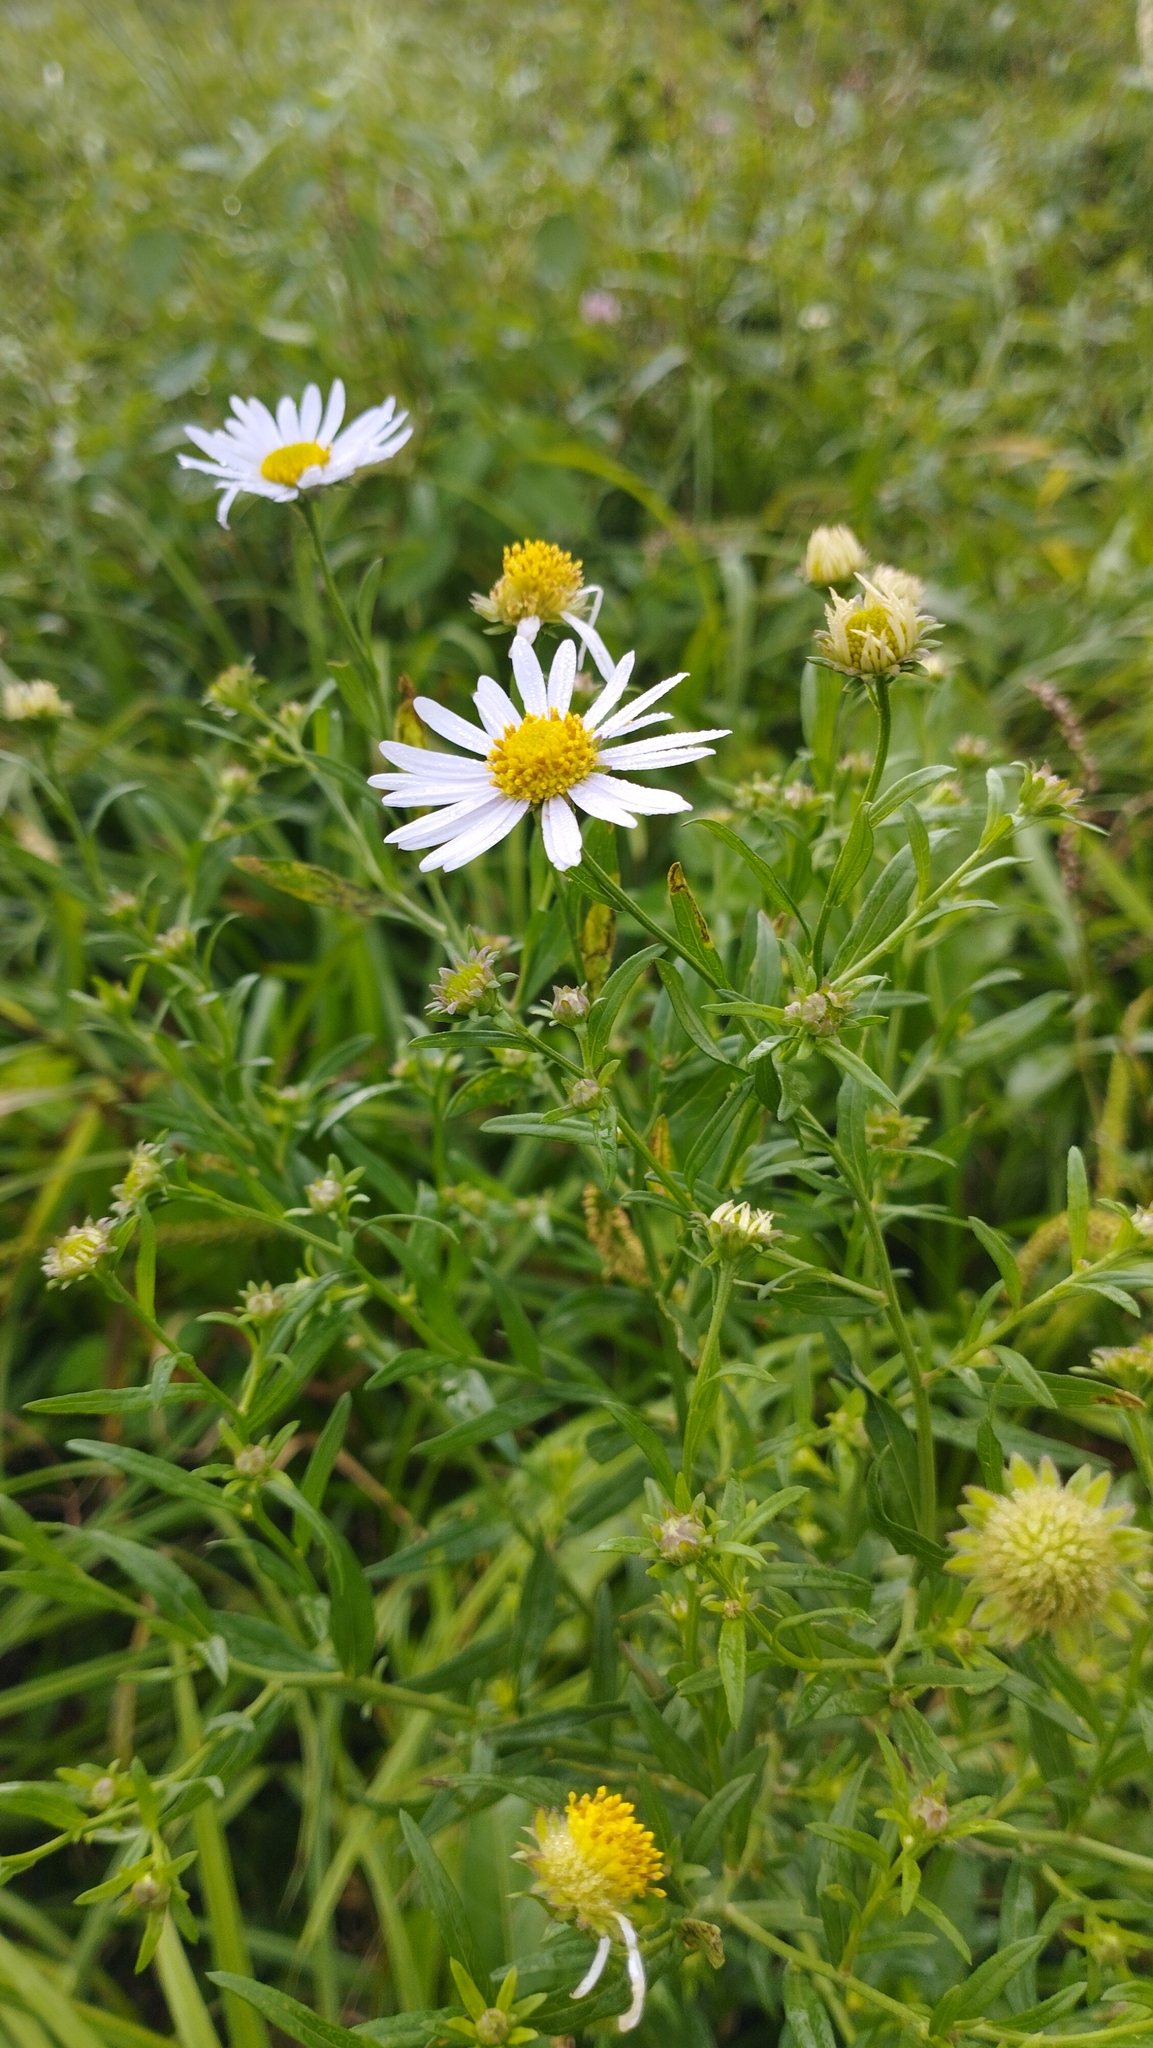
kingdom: Plantae
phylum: Tracheophyta
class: Magnoliopsida
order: Asterales
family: Asteraceae
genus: Kalimeris
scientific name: Kalimeris incisa
